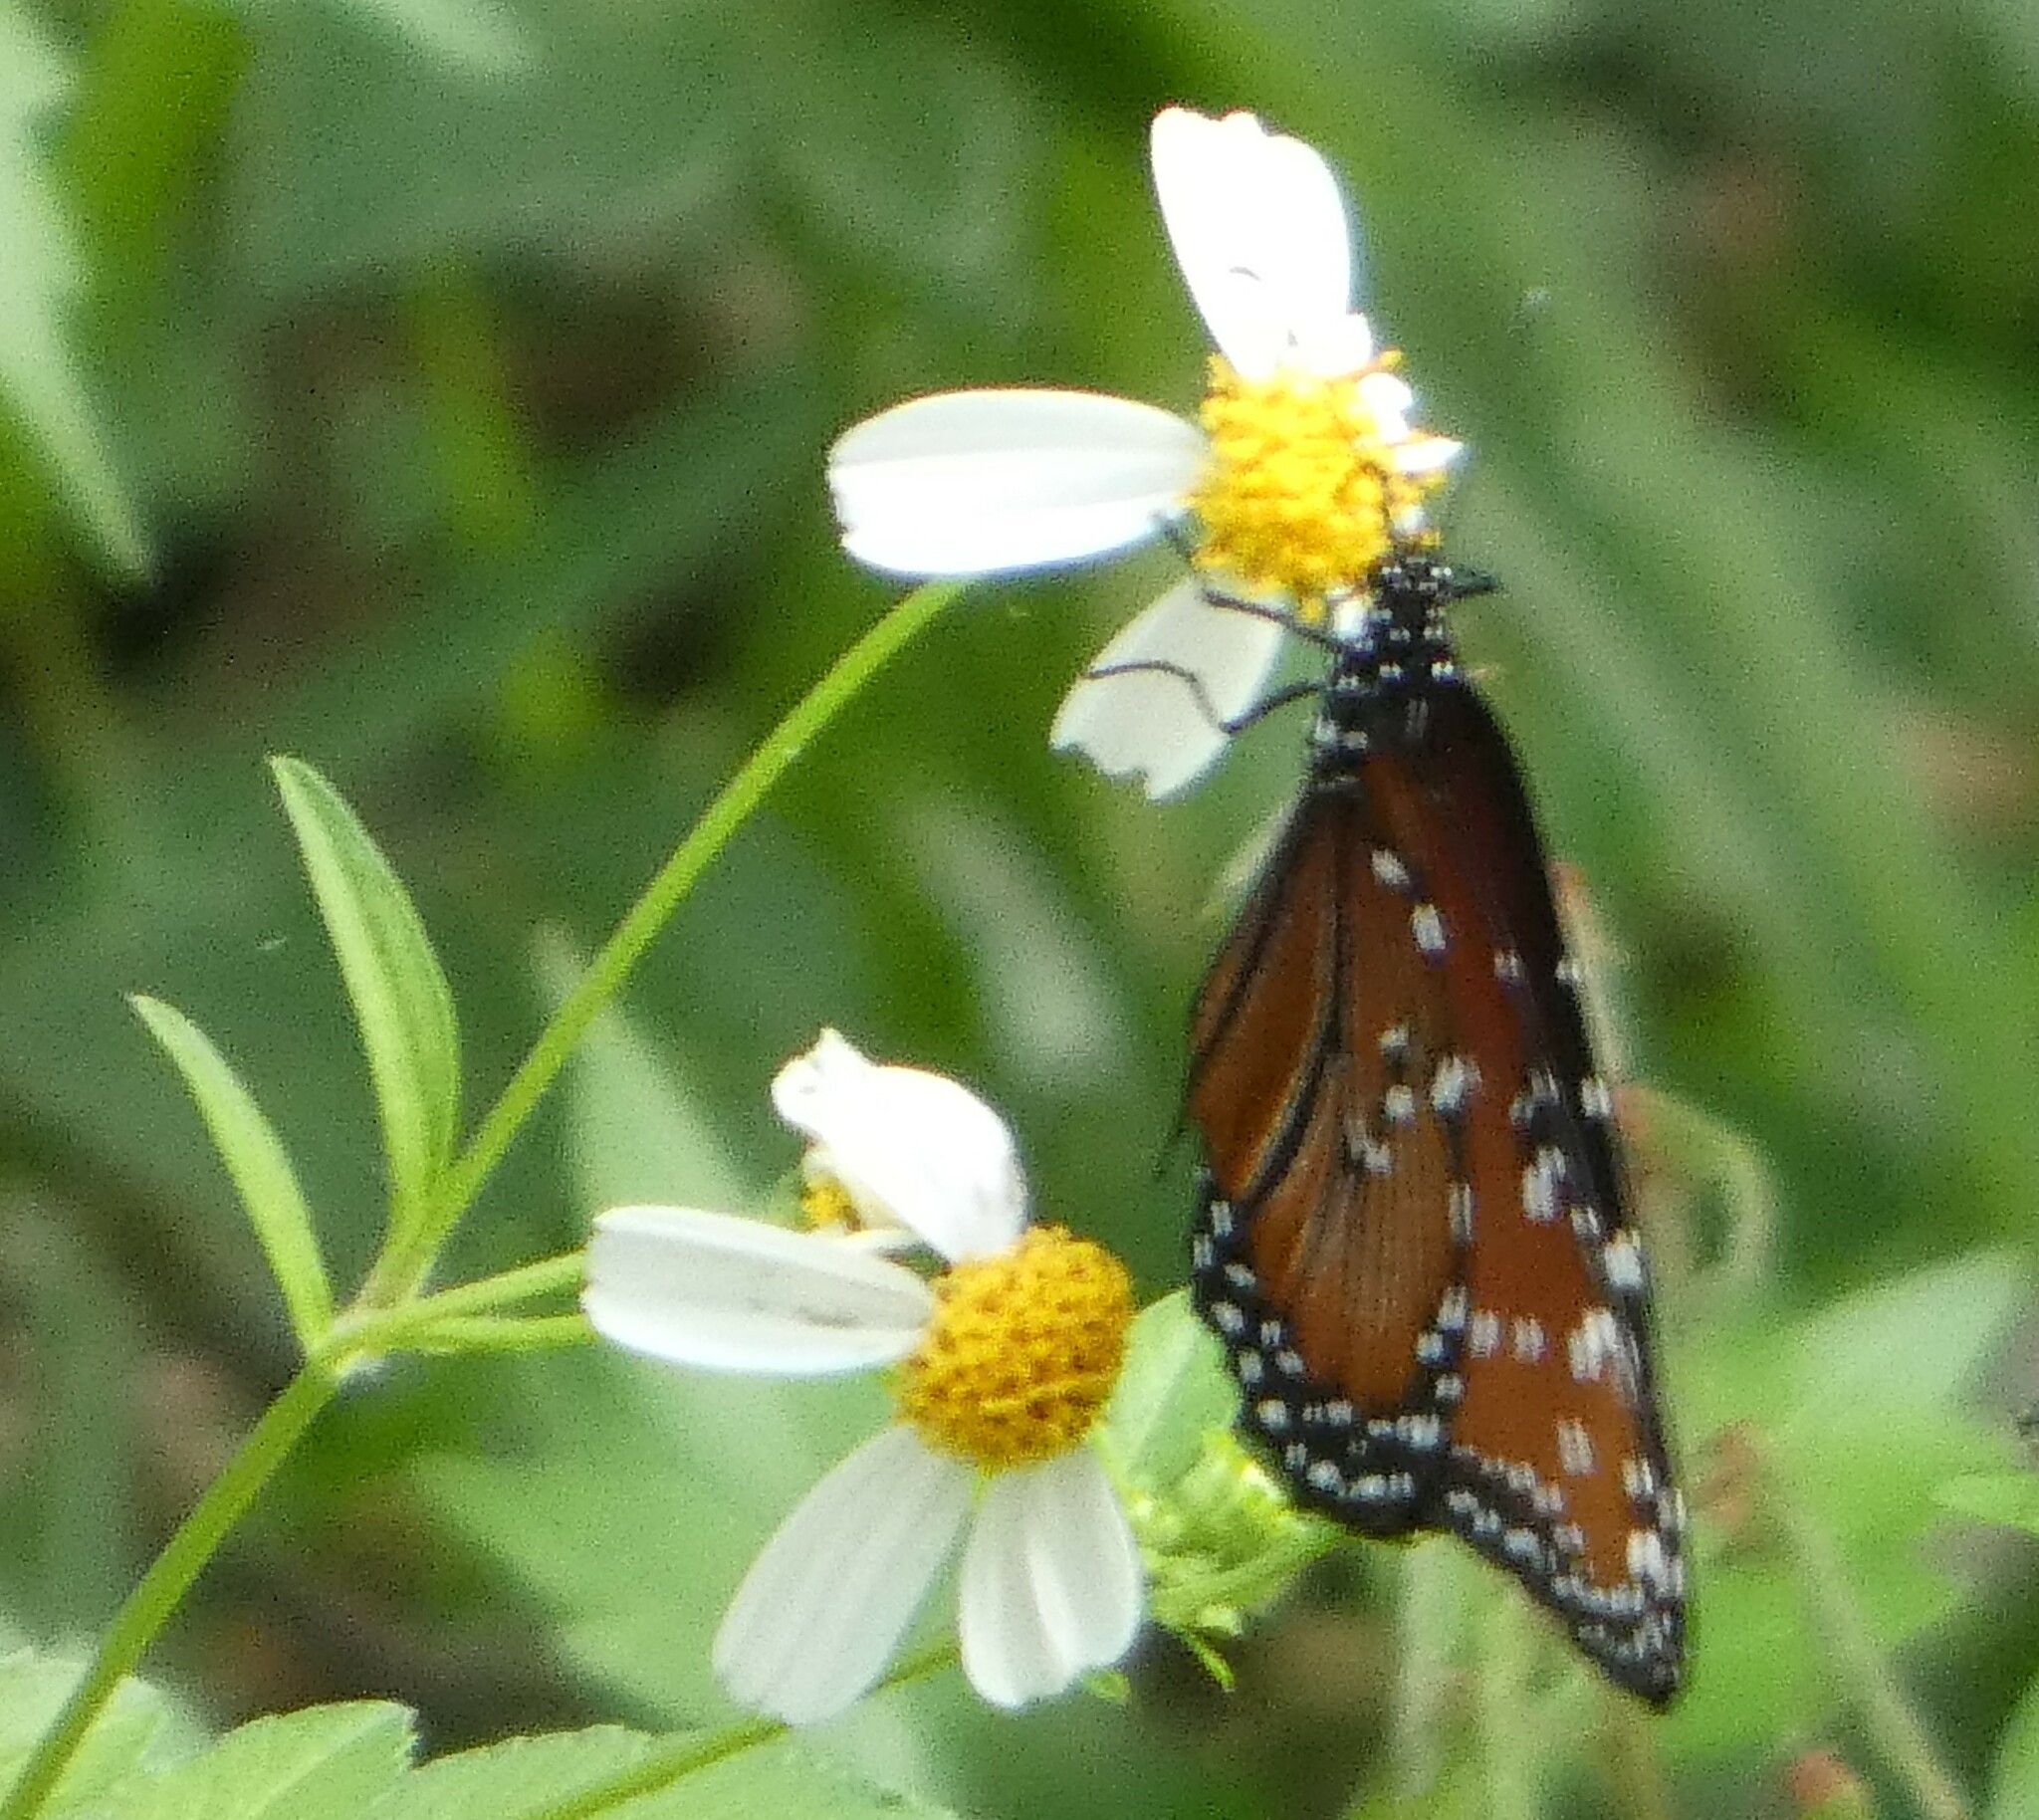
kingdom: Animalia
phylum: Arthropoda
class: Insecta
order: Lepidoptera
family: Nymphalidae
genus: Danaus
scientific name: Danaus gilippus
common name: Queen
